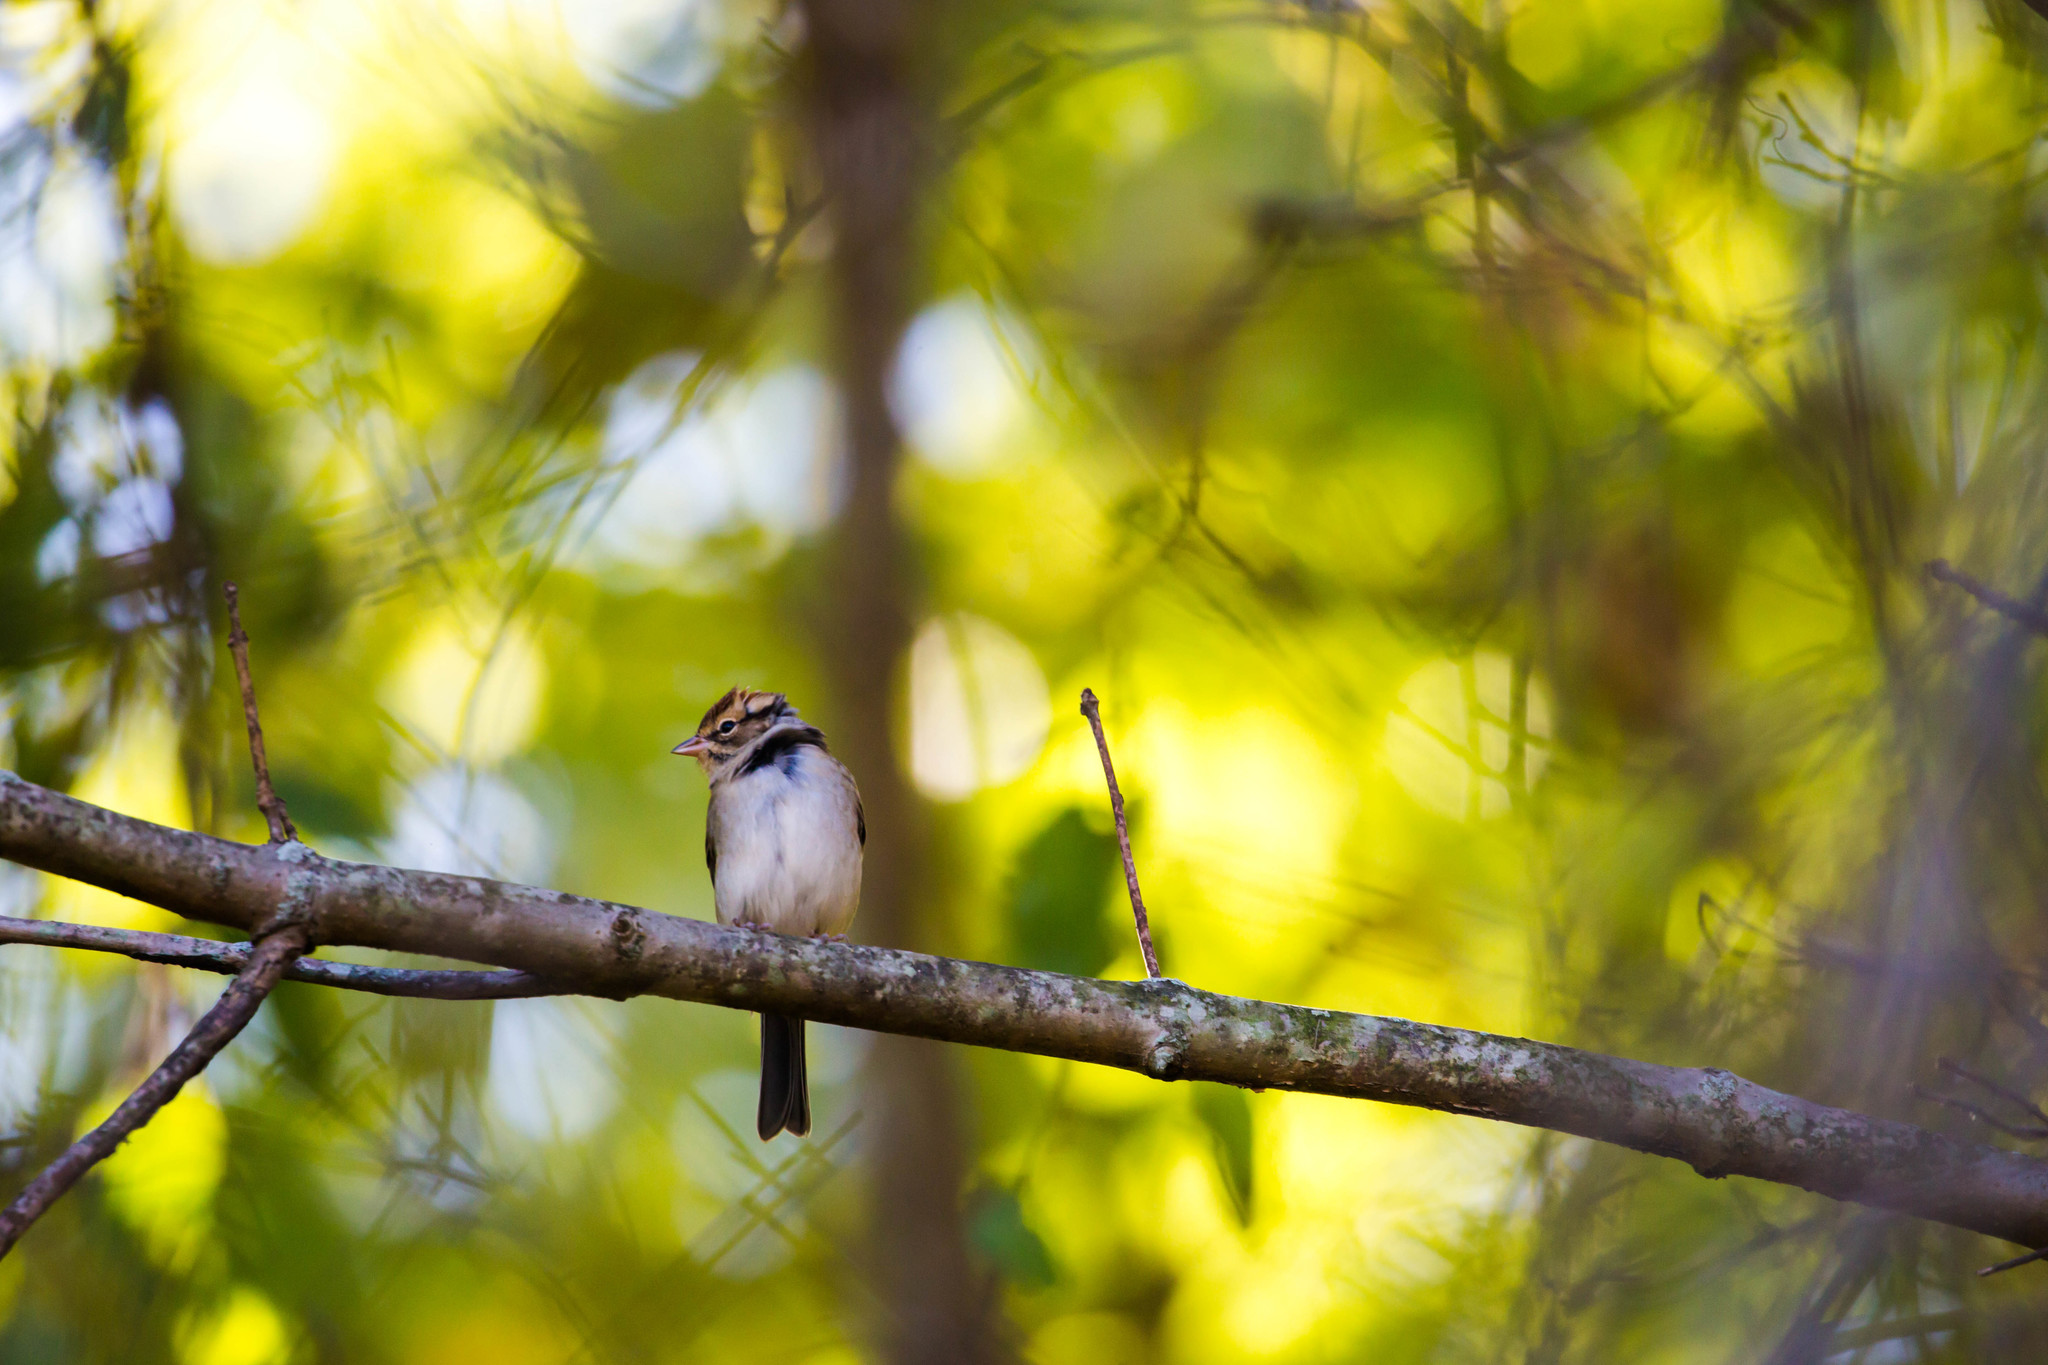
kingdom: Animalia
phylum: Chordata
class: Aves
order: Passeriformes
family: Passerellidae
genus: Spizella
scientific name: Spizella passerina
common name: Chipping sparrow
